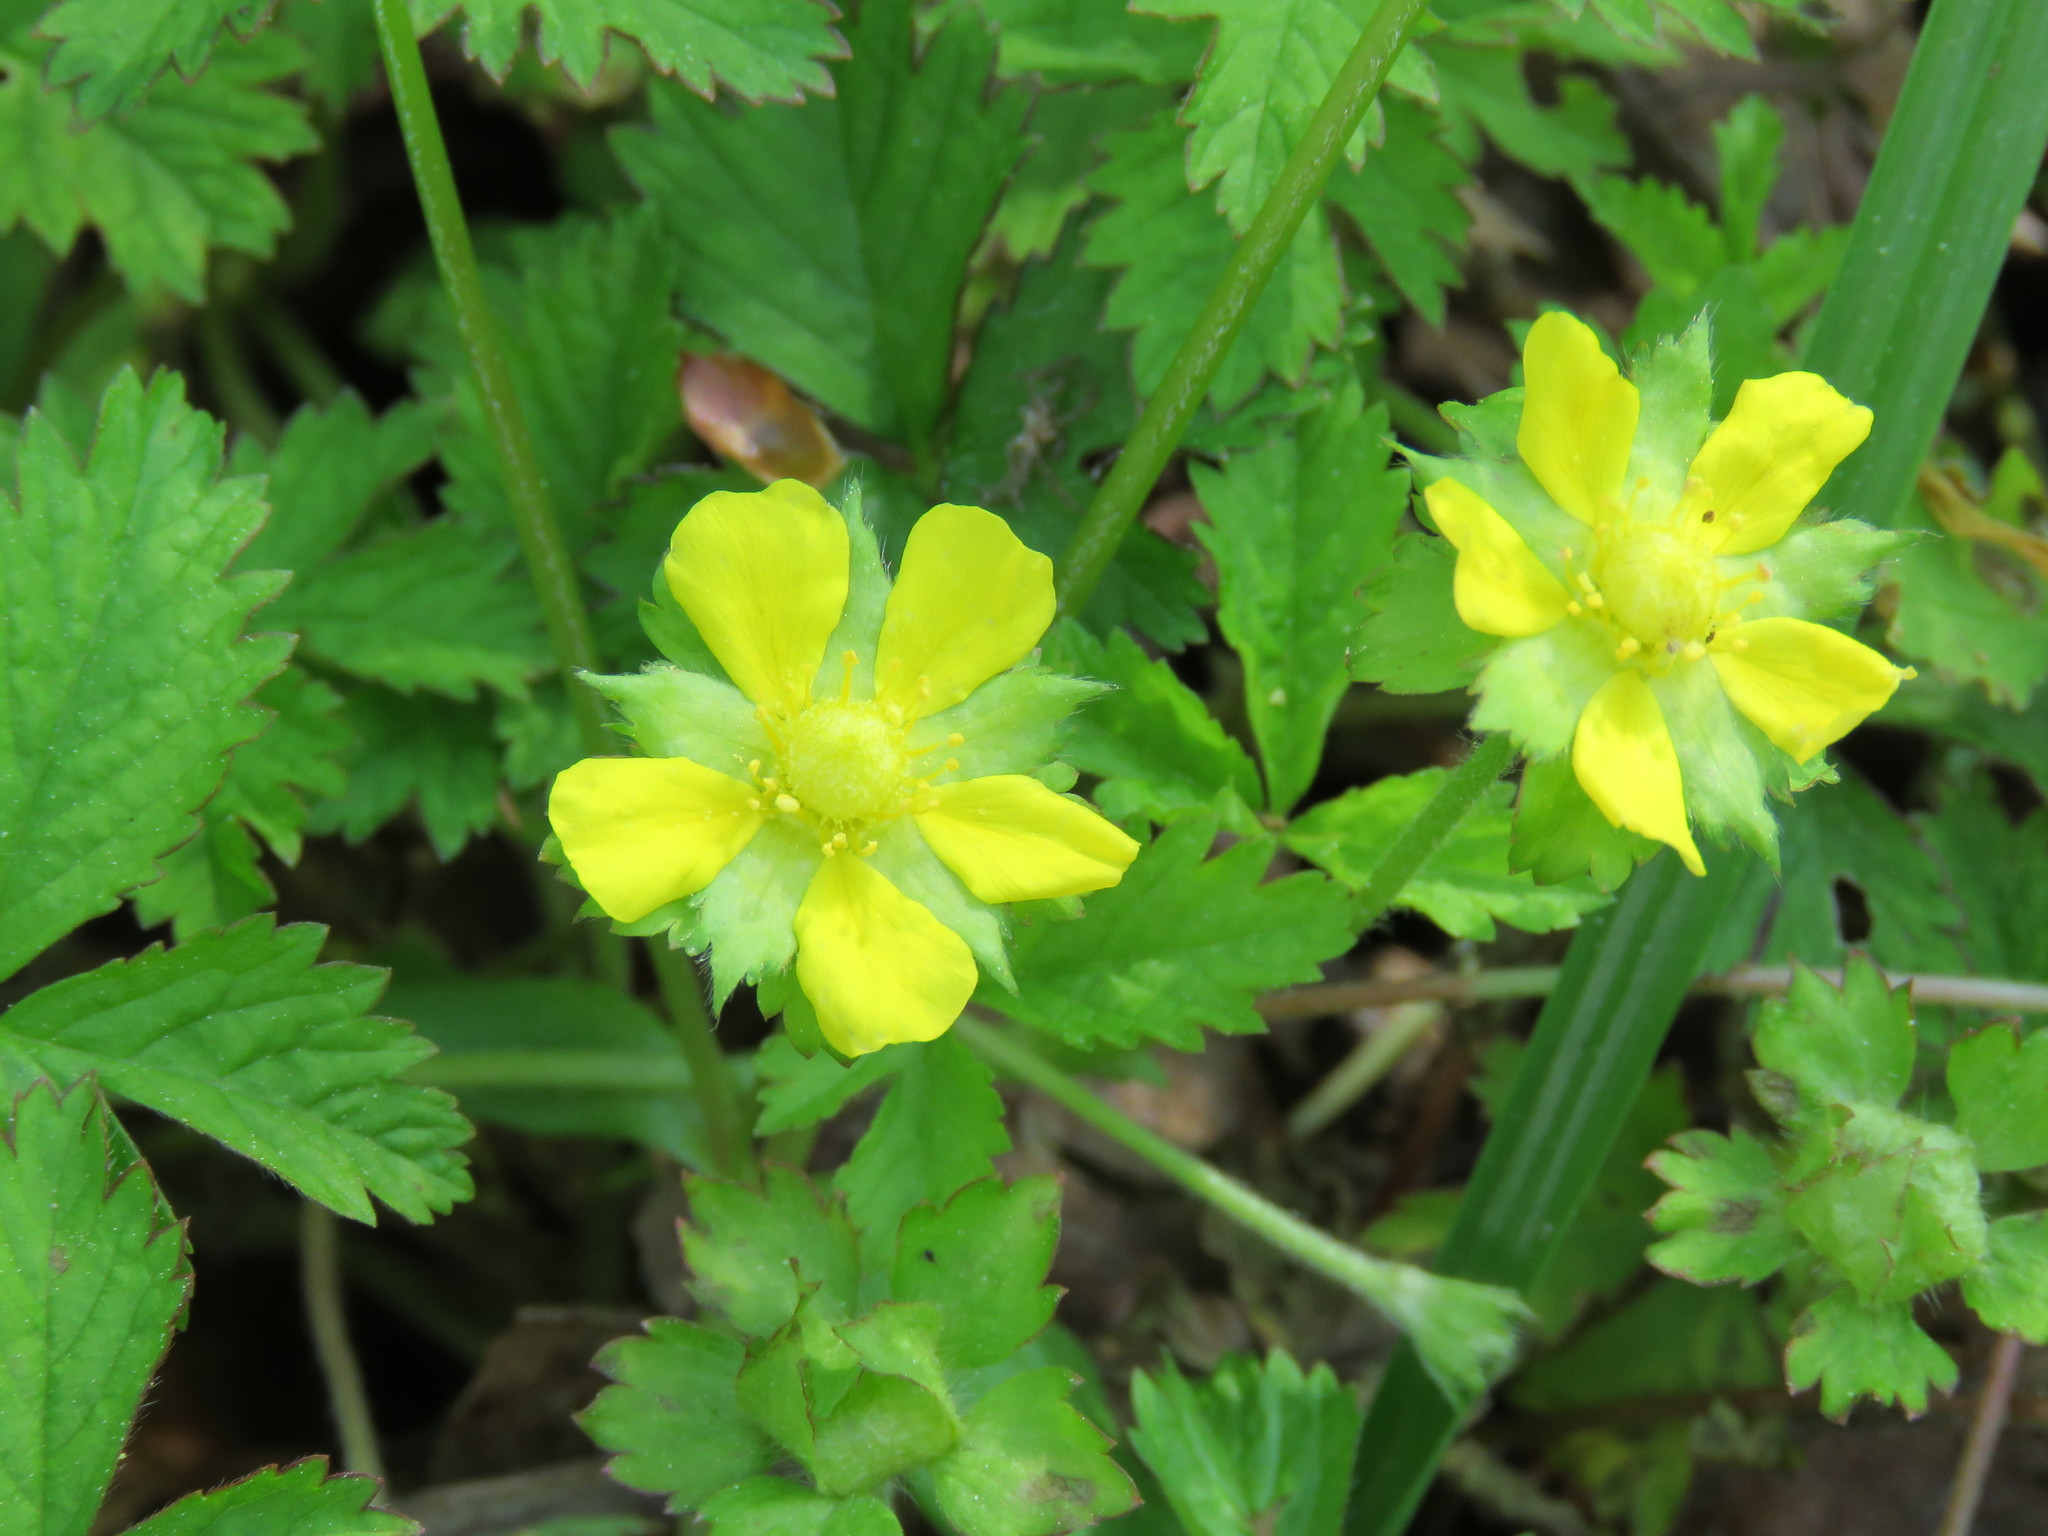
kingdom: Plantae
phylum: Tracheophyta
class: Magnoliopsida
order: Rosales
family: Rosaceae
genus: Potentilla
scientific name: Potentilla indica
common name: Yellow-flowered strawberry
